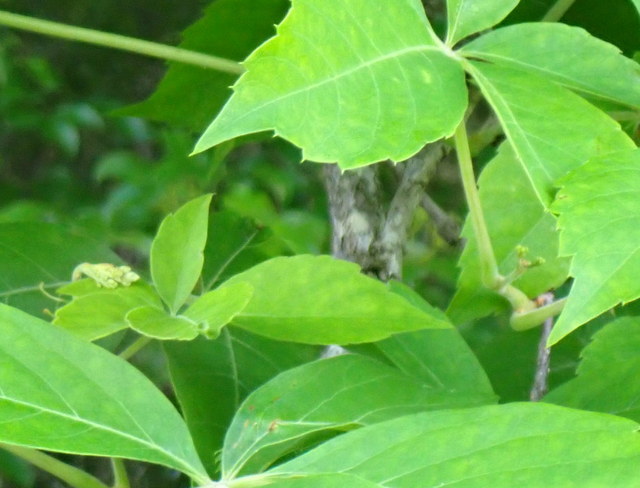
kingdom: Plantae
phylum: Tracheophyta
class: Magnoliopsida
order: Vitales
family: Vitaceae
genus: Parthenocissus
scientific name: Parthenocissus quinquefolia
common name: Virginia-creeper
